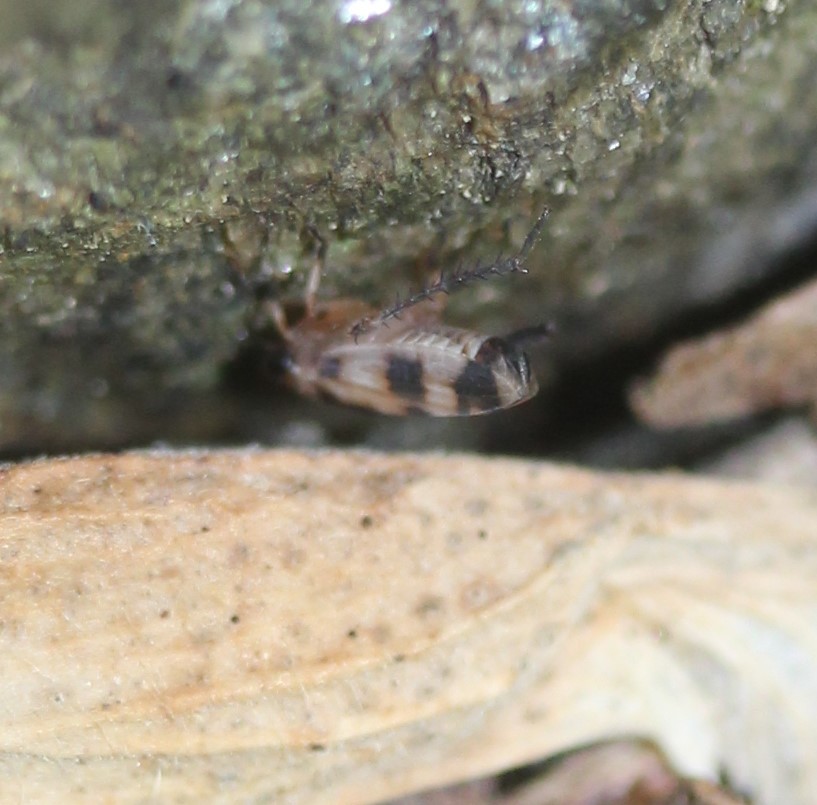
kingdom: Animalia
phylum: Arthropoda
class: Insecta
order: Hemiptera
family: Cicadellidae
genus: Anoscopus
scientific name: Anoscopus serratulae
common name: Leafhopper
